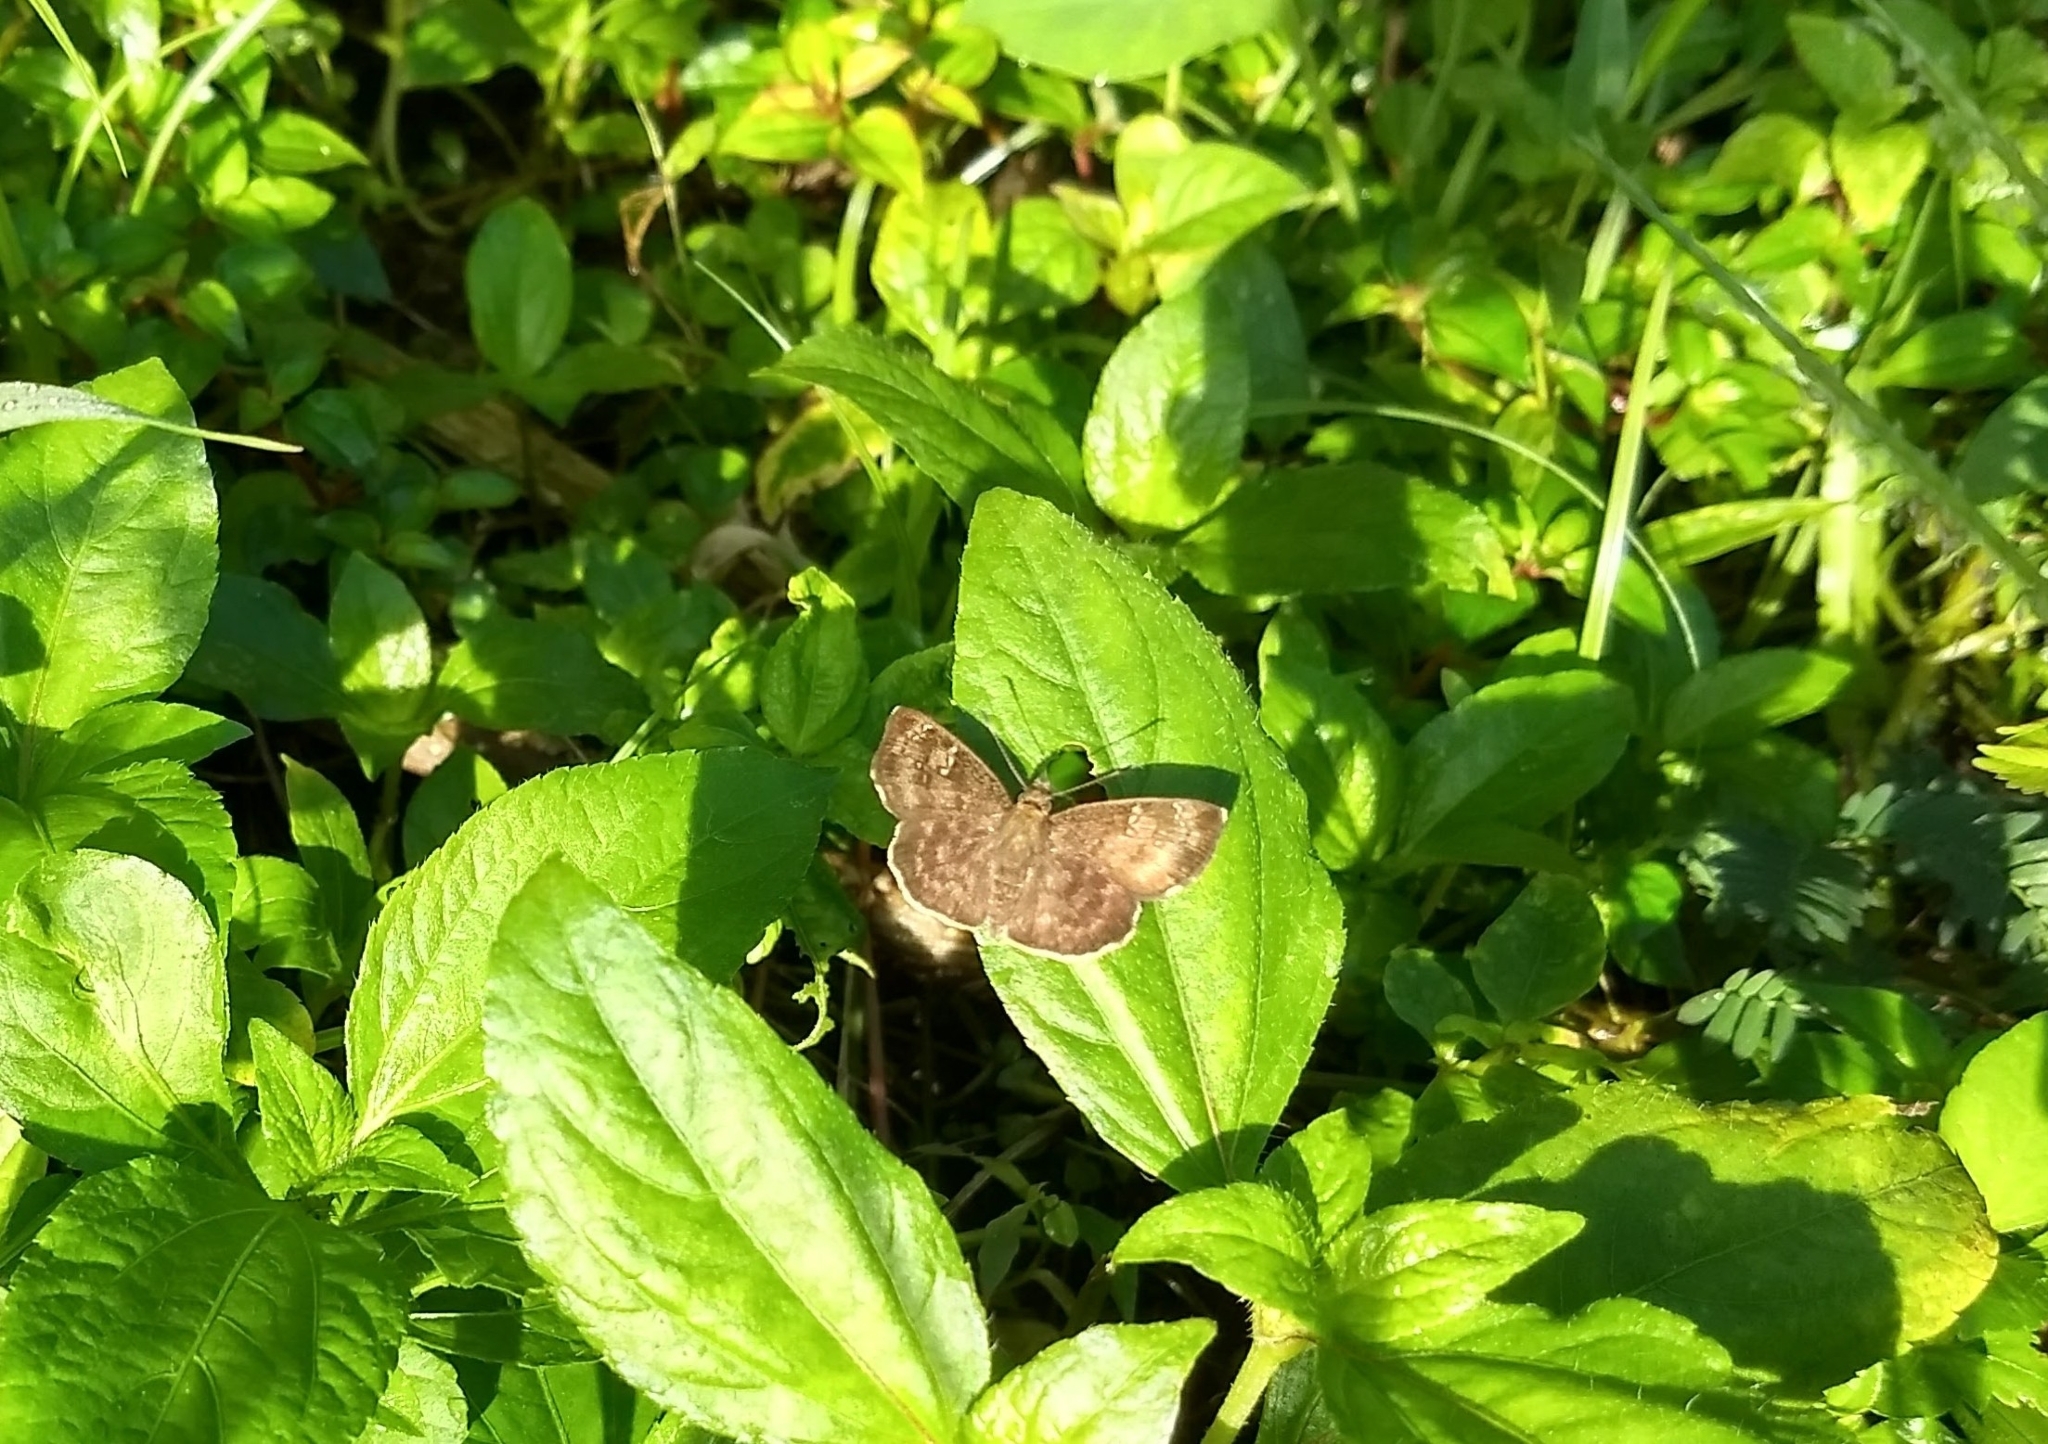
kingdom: Animalia
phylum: Arthropoda
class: Insecta
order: Lepidoptera
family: Hesperiidae
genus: Sarangesa
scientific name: Sarangesa dasahara
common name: Common small flat
